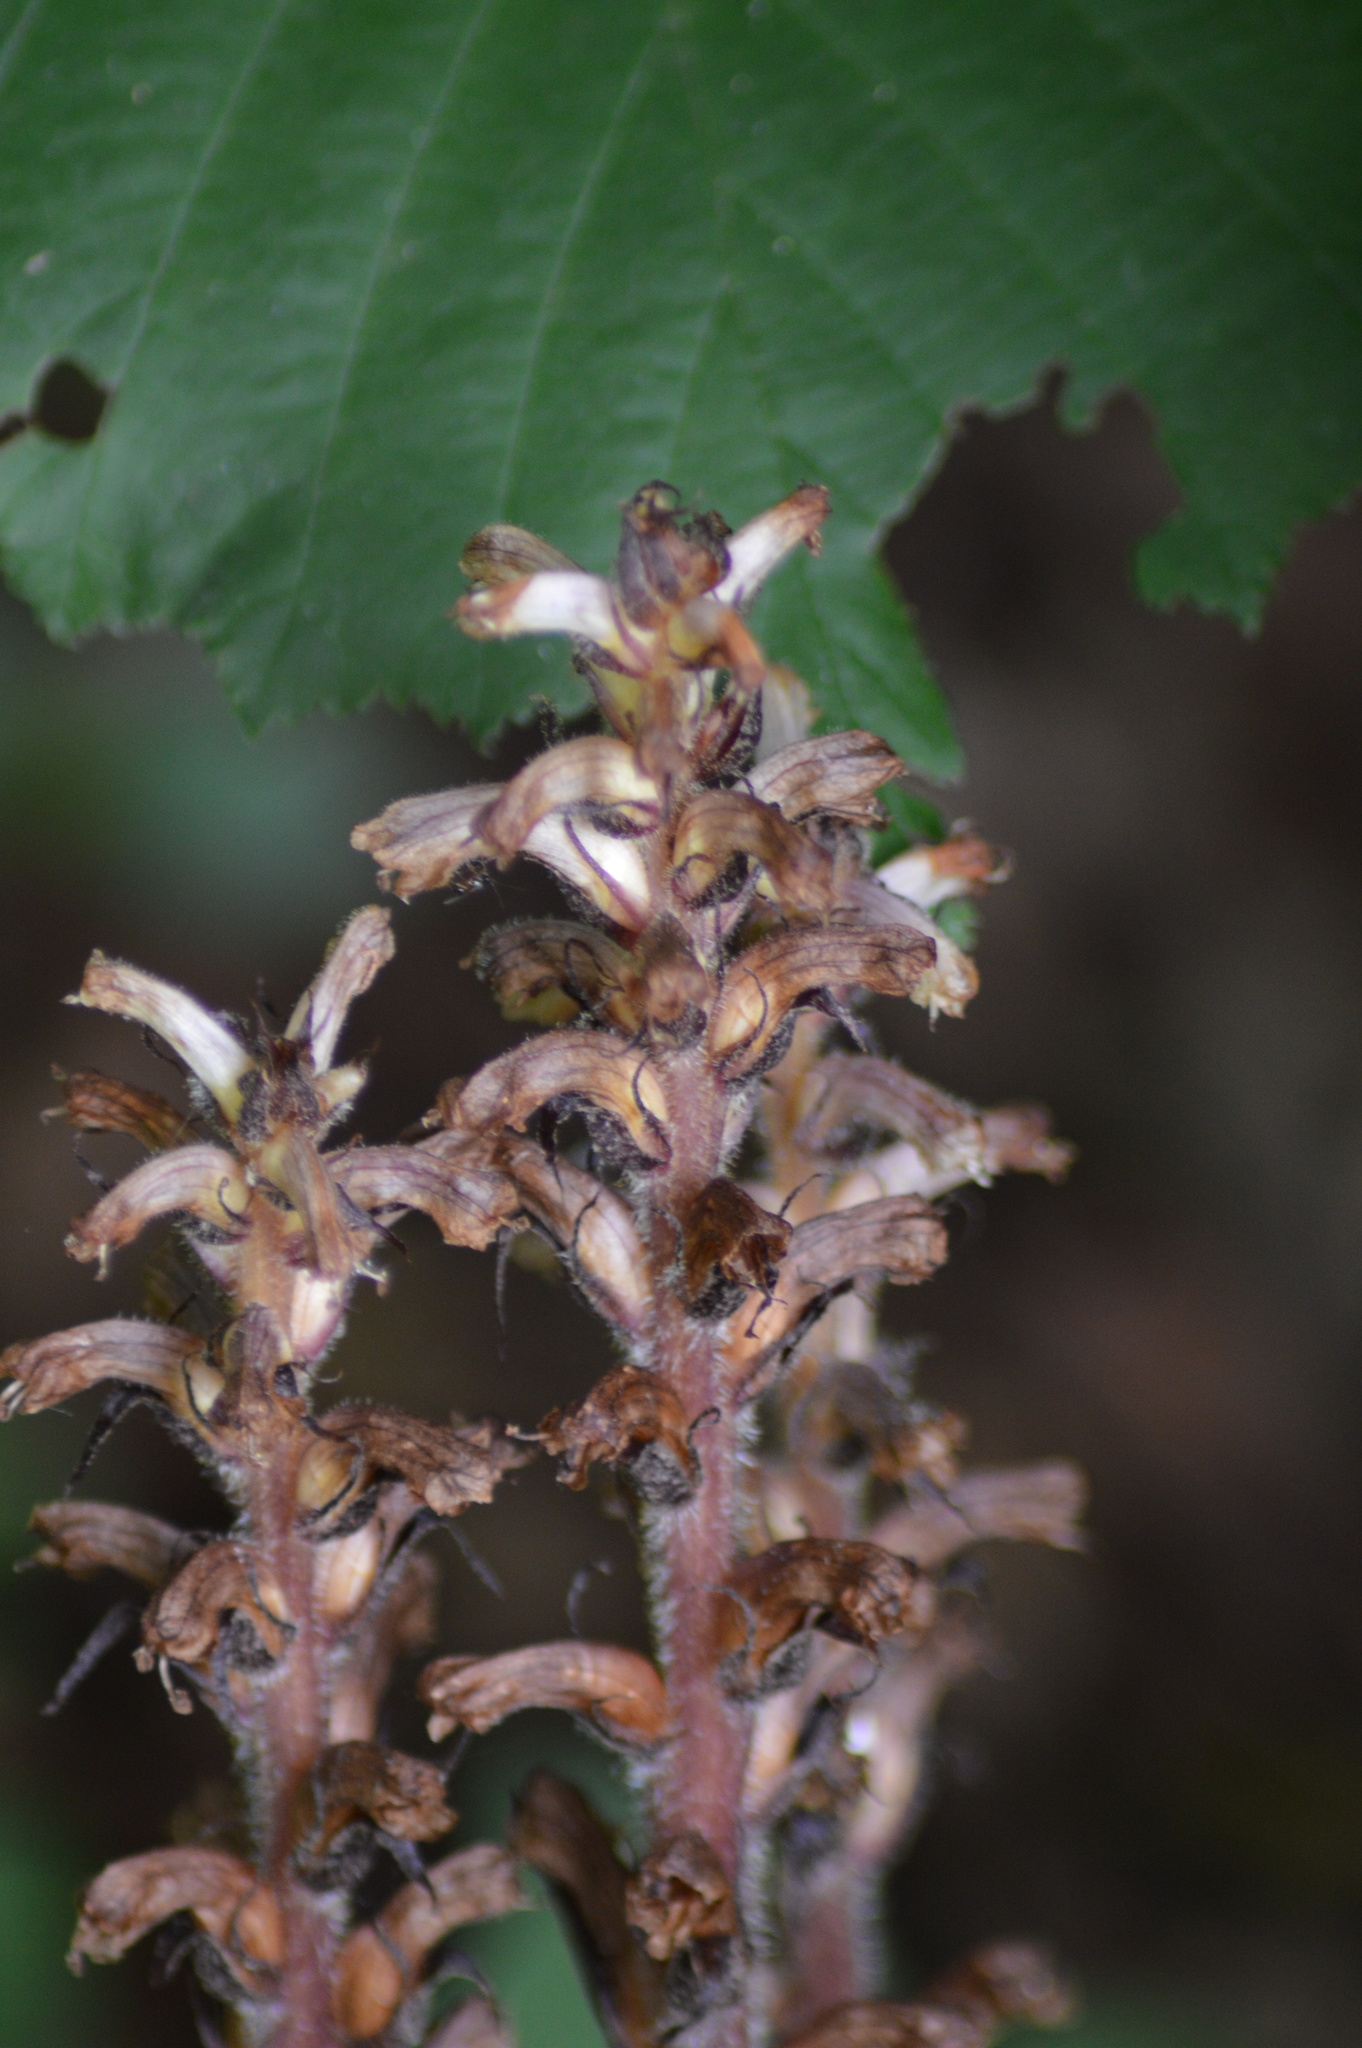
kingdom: Plantae
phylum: Tracheophyta
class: Magnoliopsida
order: Lamiales
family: Orobanchaceae
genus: Orobanche
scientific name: Orobanche hederae
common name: Ivy broomrape
